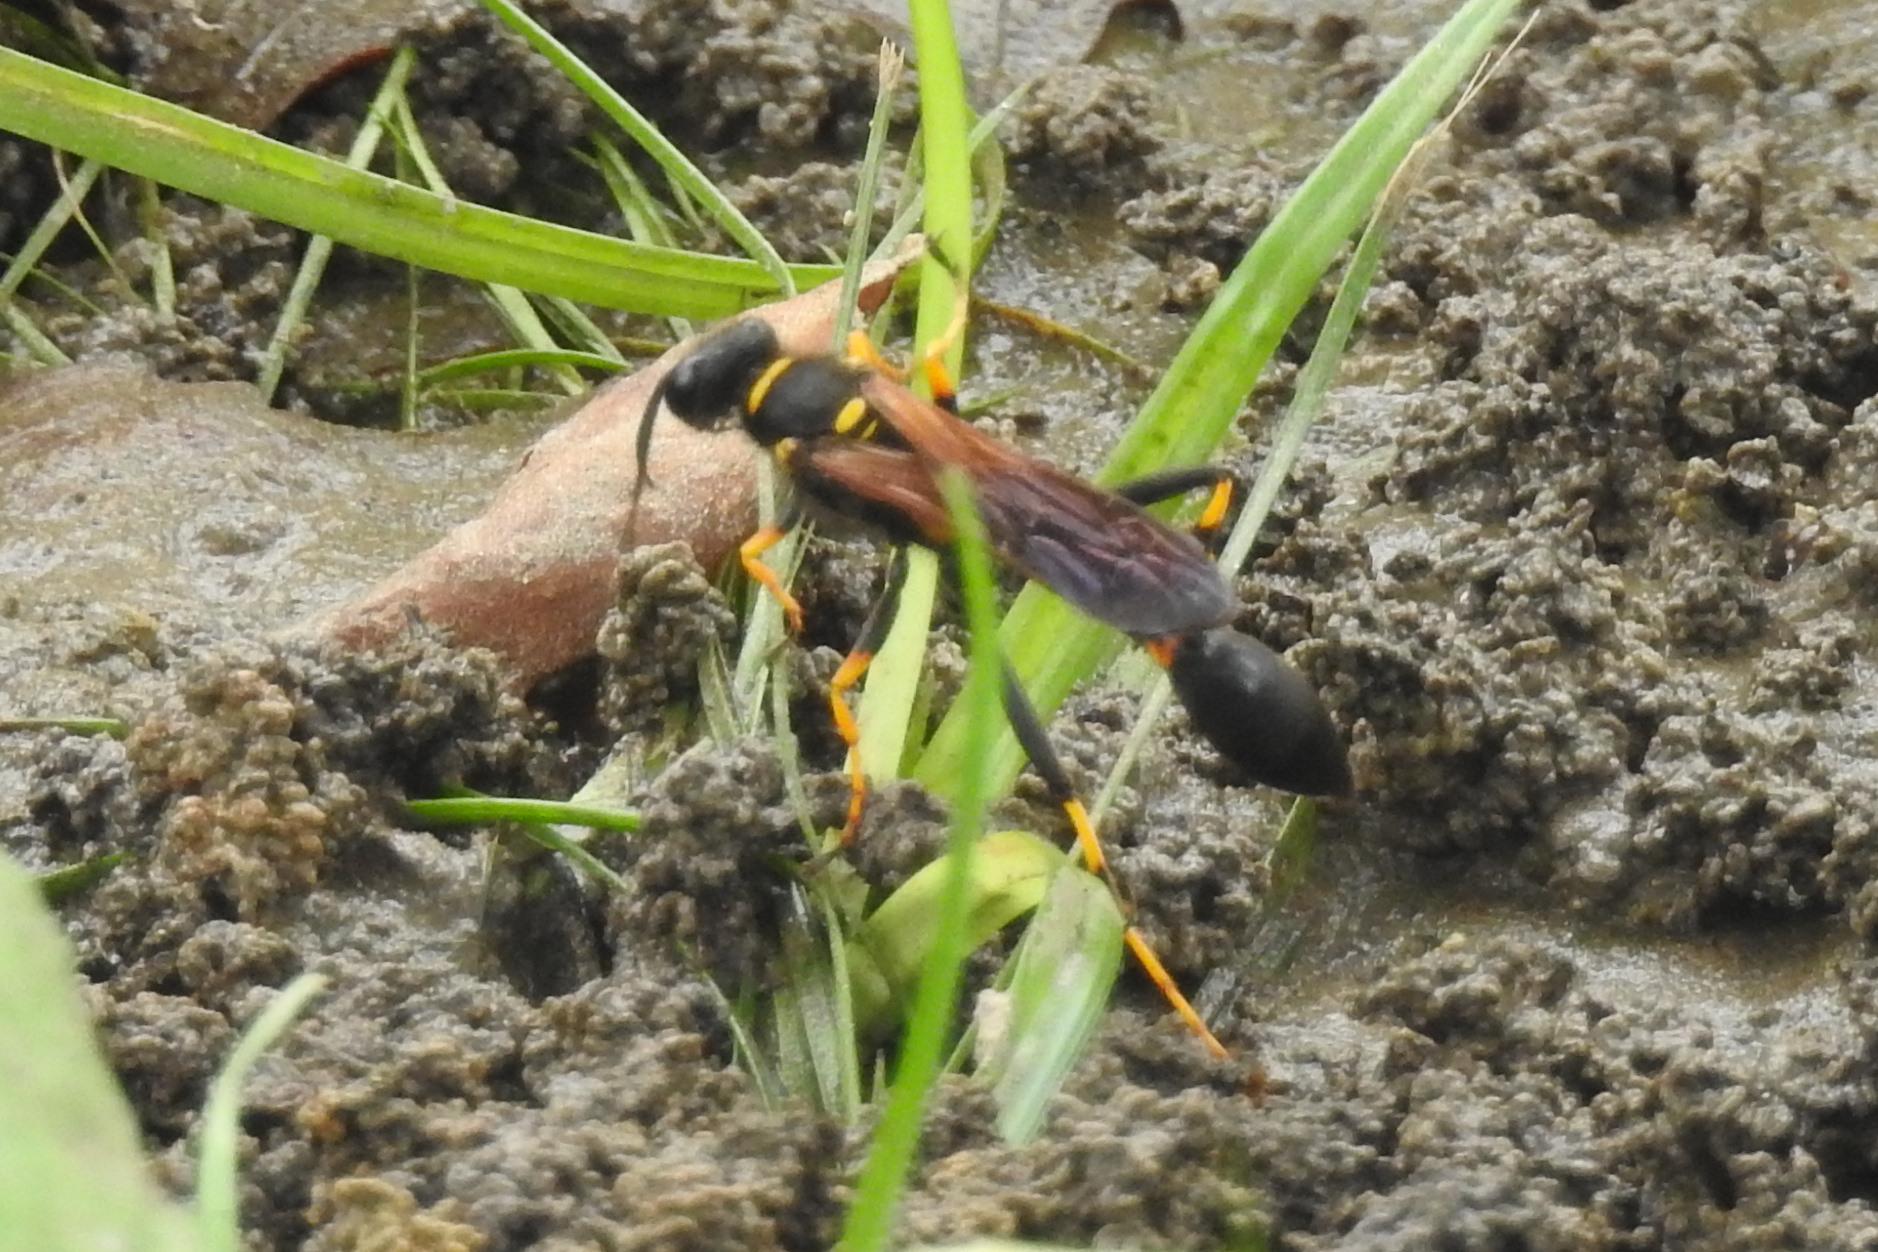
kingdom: Animalia
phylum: Arthropoda
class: Insecta
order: Hymenoptera
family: Sphecidae
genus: Sceliphron
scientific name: Sceliphron caementarium
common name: Mud dauber
